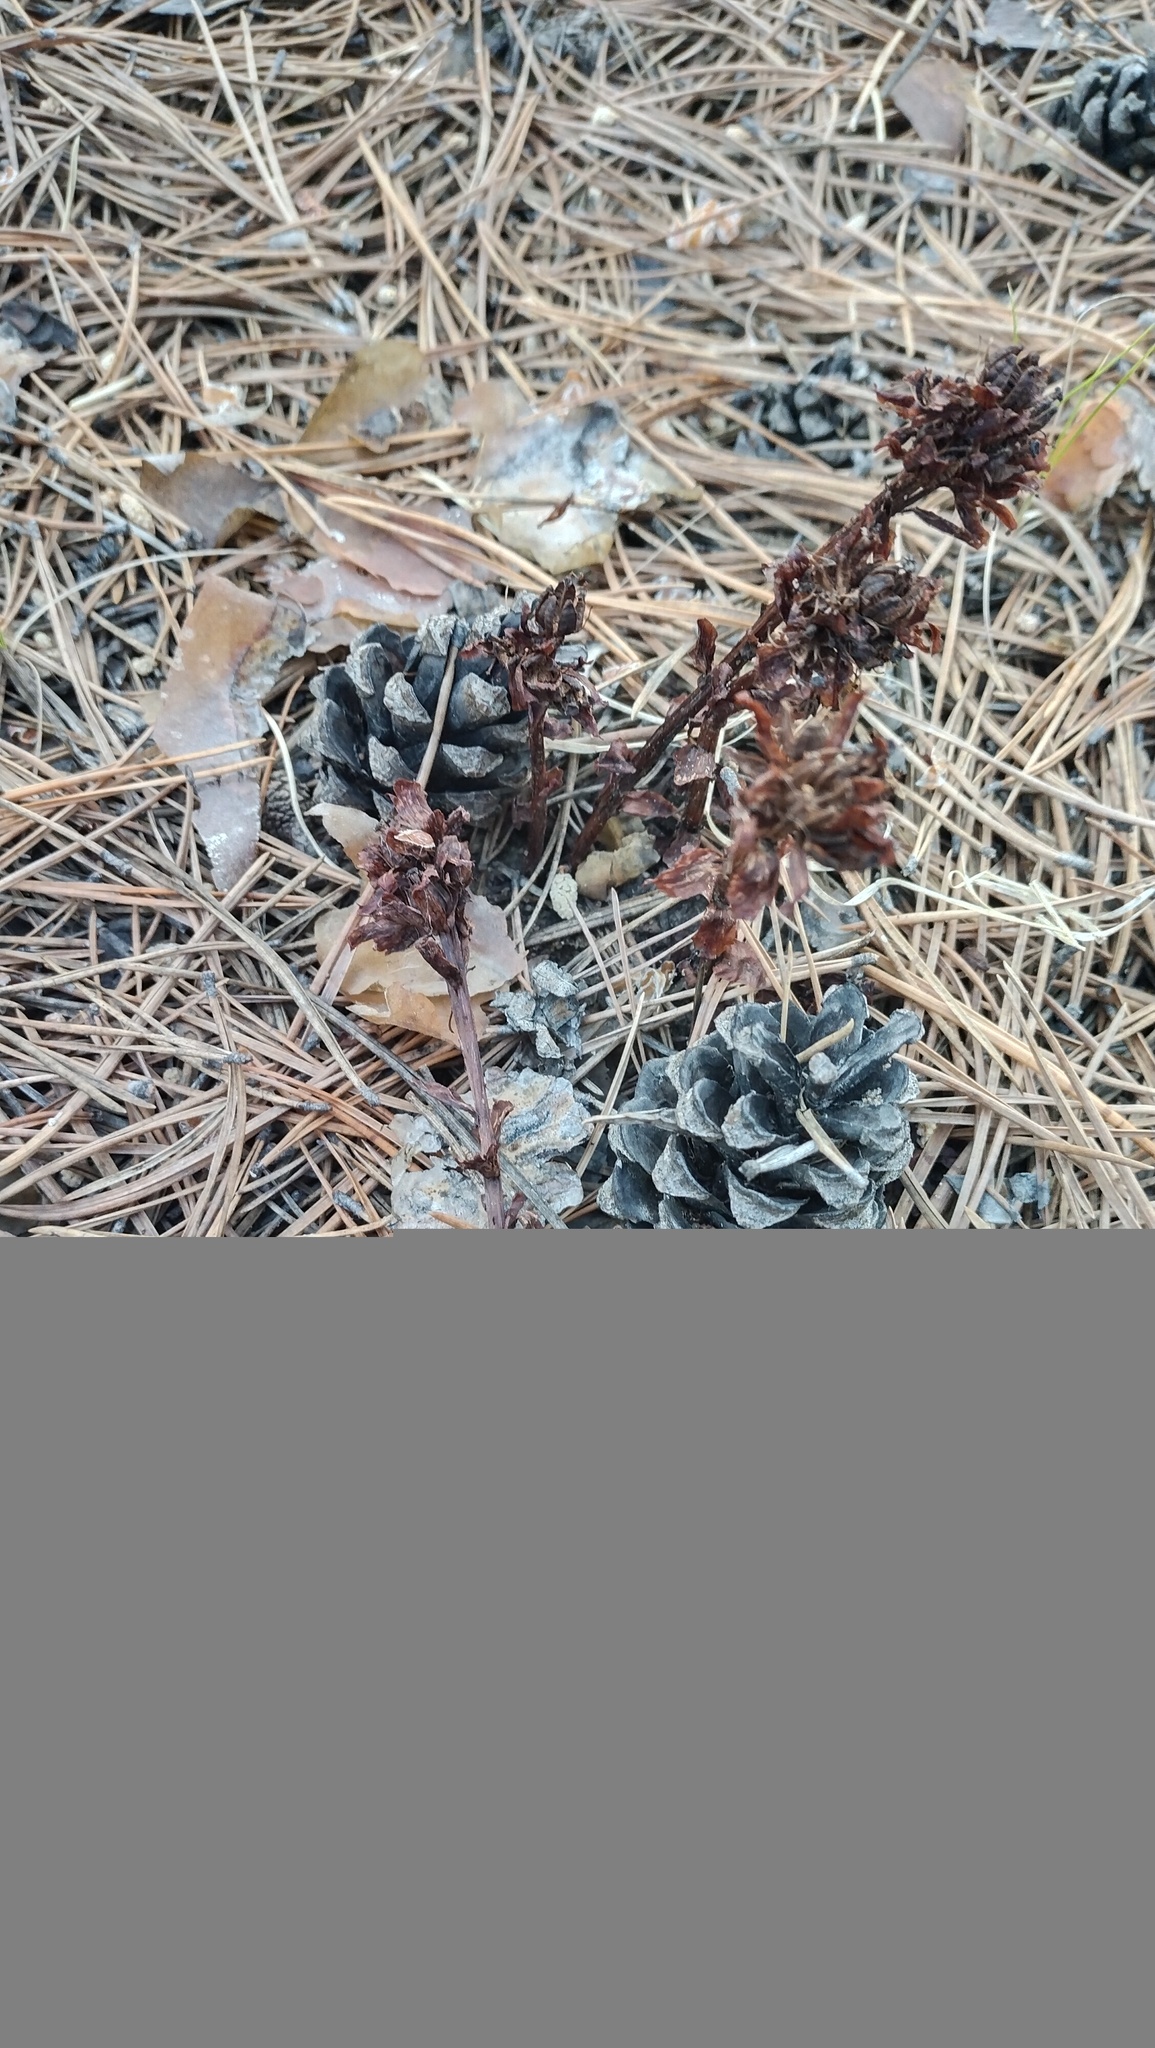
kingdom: Plantae
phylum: Tracheophyta
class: Magnoliopsida
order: Ericales
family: Ericaceae
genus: Hypopitys
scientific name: Hypopitys monotropa
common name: Yellow bird's-nest
